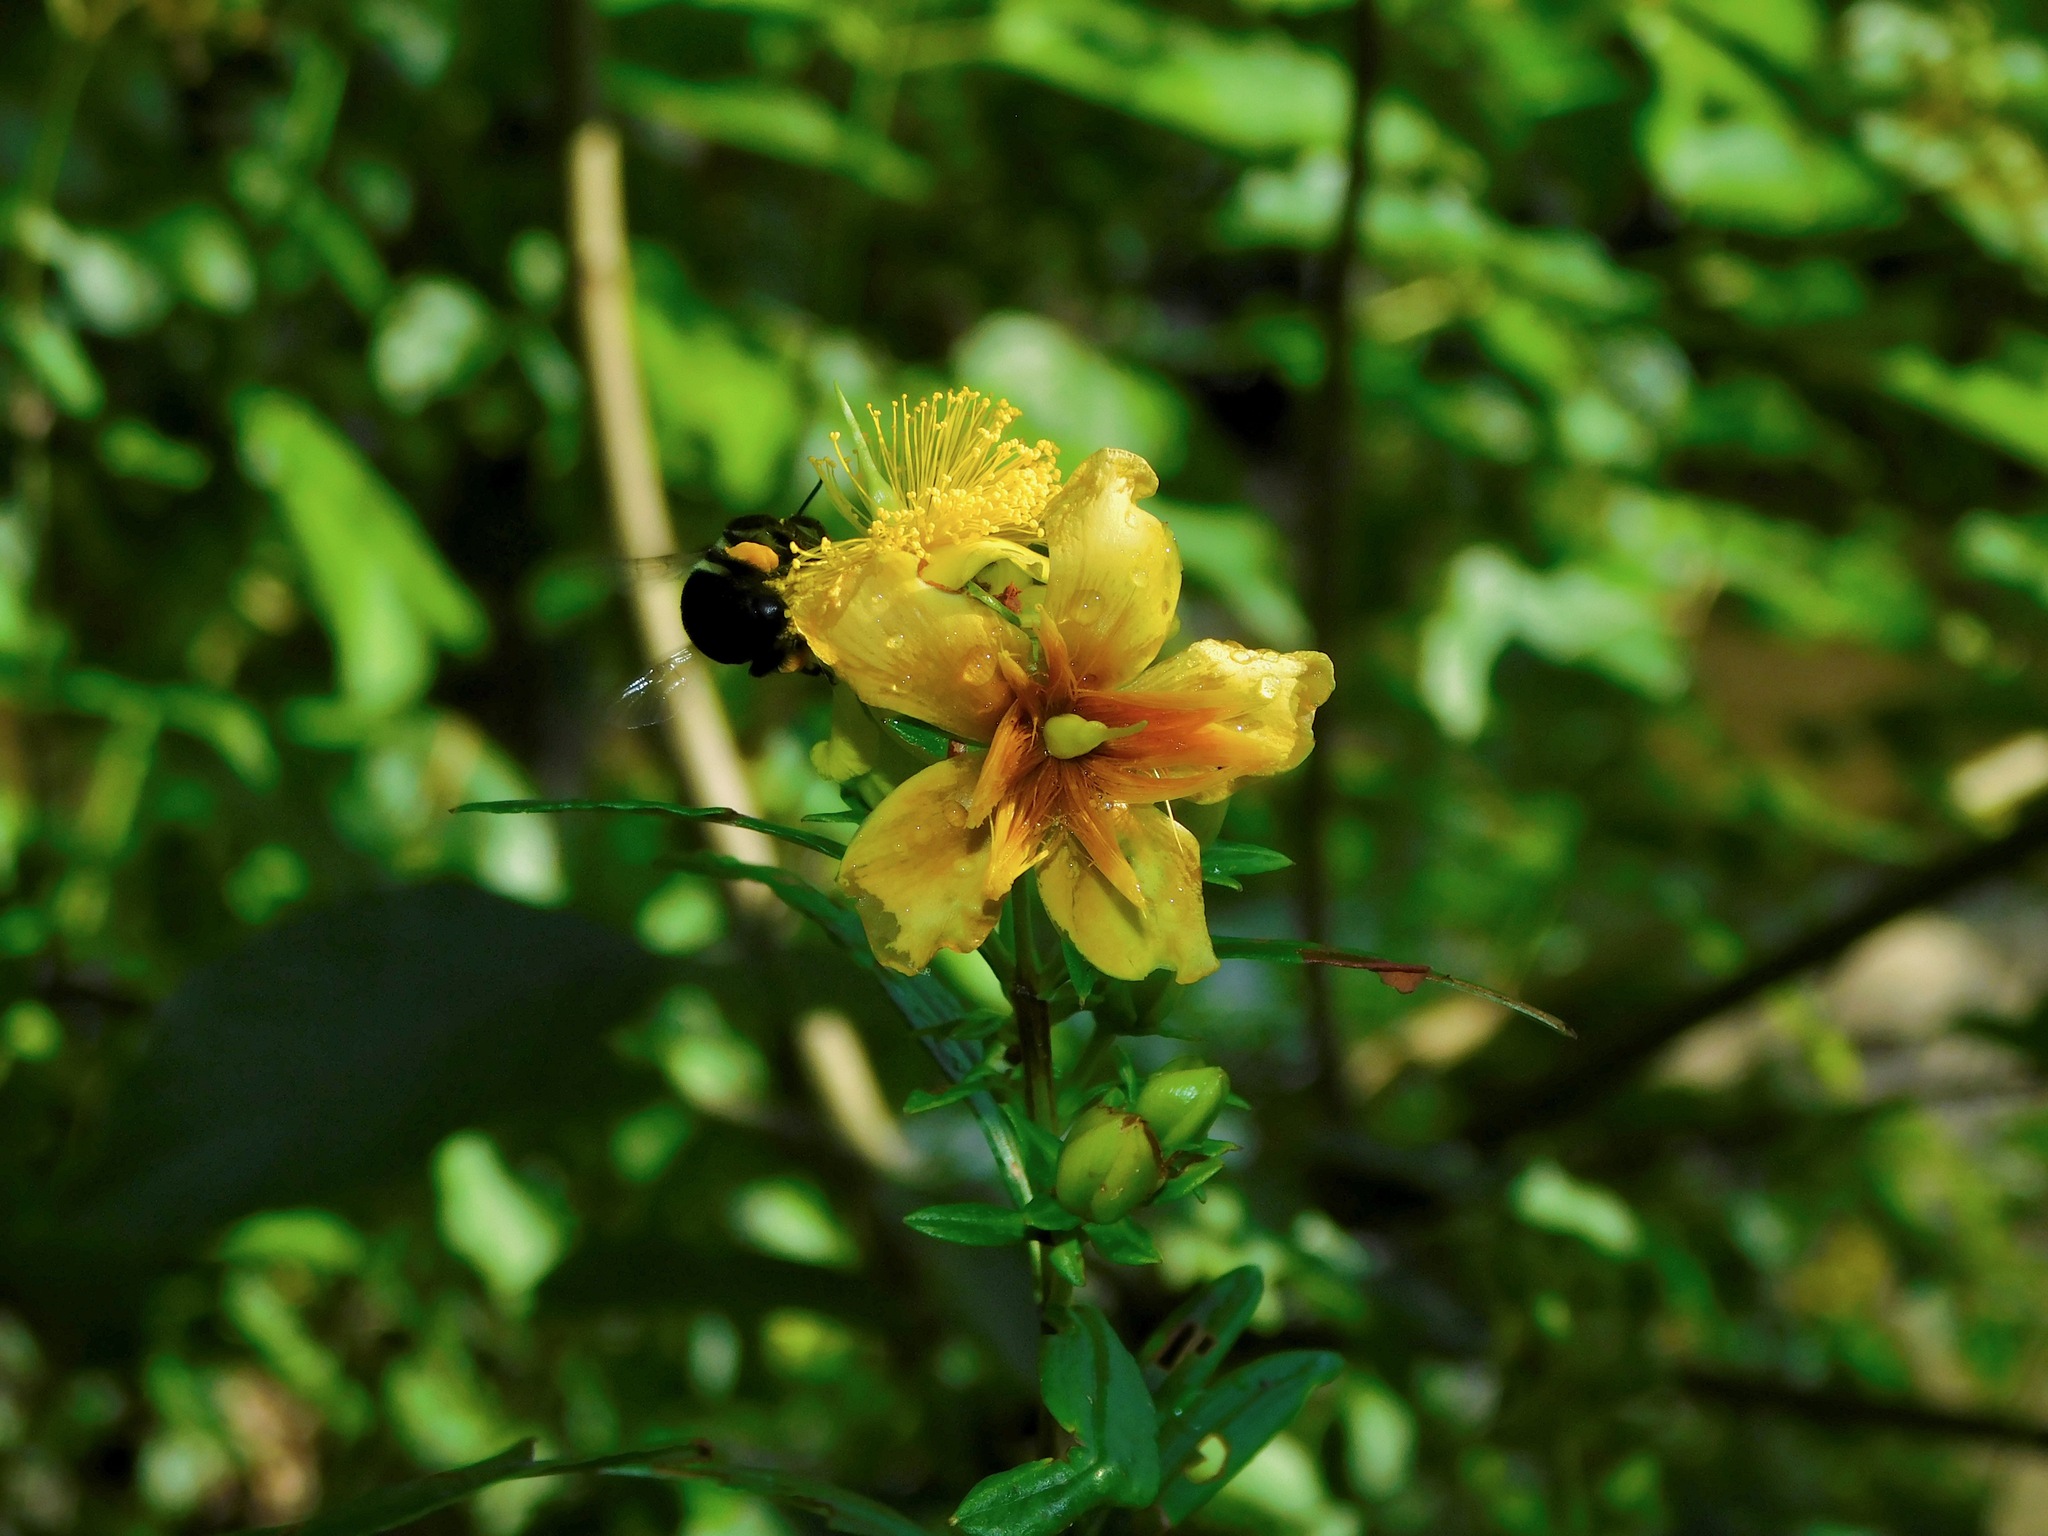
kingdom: Plantae
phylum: Tracheophyta
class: Magnoliopsida
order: Malpighiales
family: Hypericaceae
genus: Hypericum
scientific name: Hypericum prolificum
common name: Shrubby st. john's-wort
